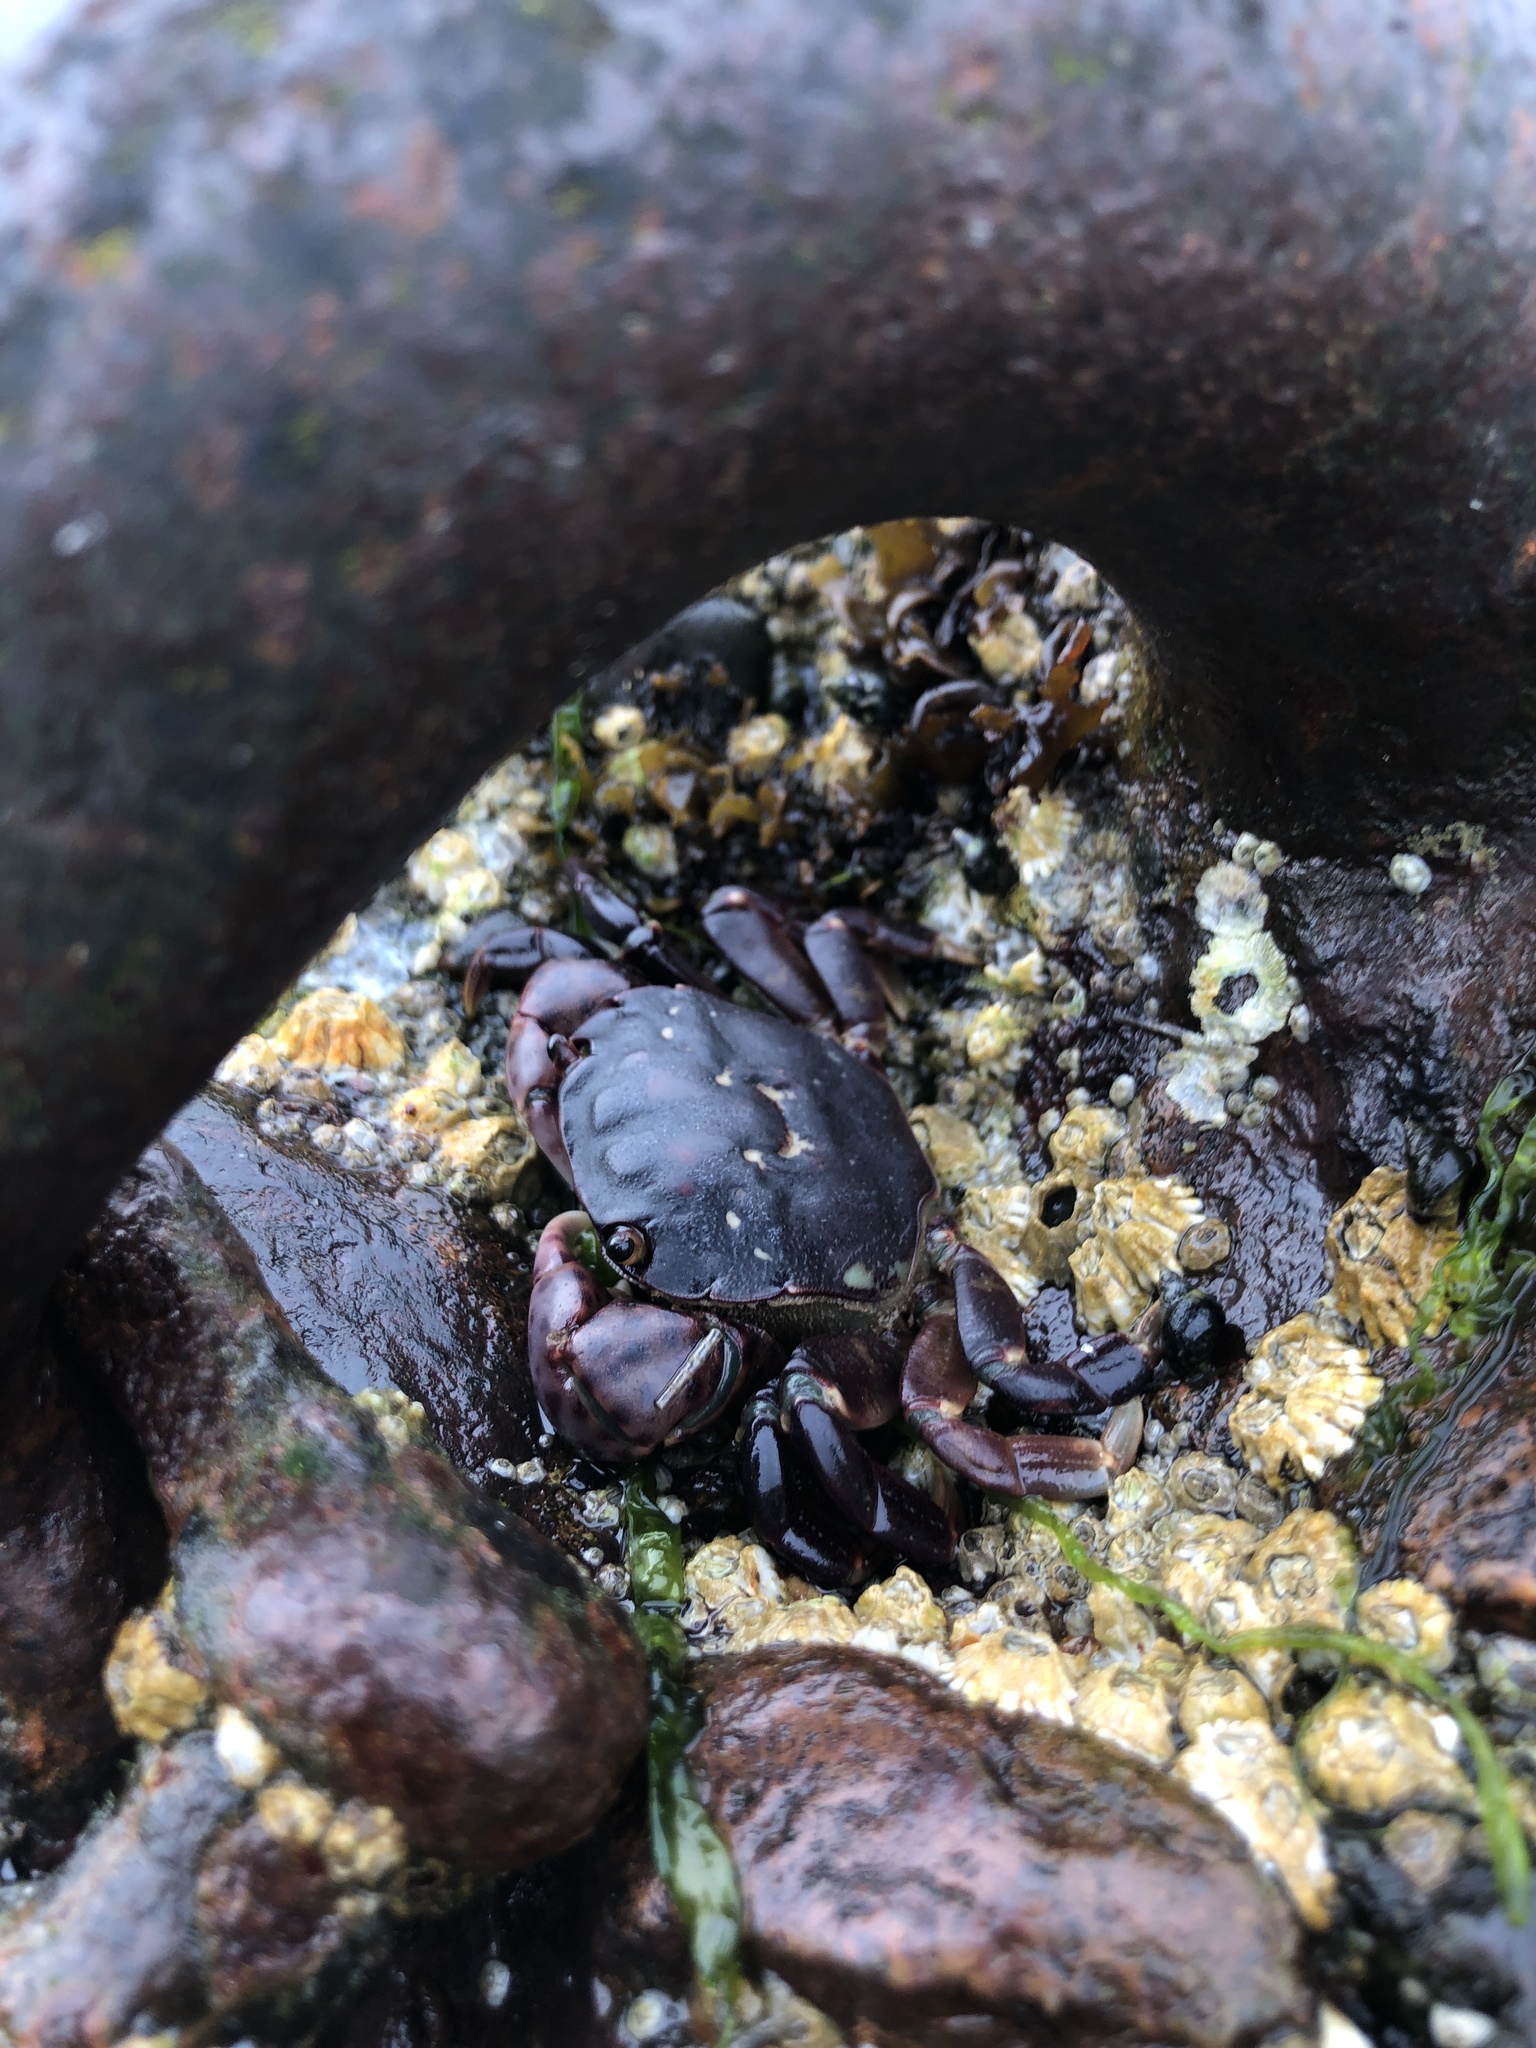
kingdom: Animalia
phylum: Arthropoda
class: Malacostraca
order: Decapoda
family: Varunidae
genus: Hemigrapsus
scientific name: Hemigrapsus nudus
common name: Purple shore crab
